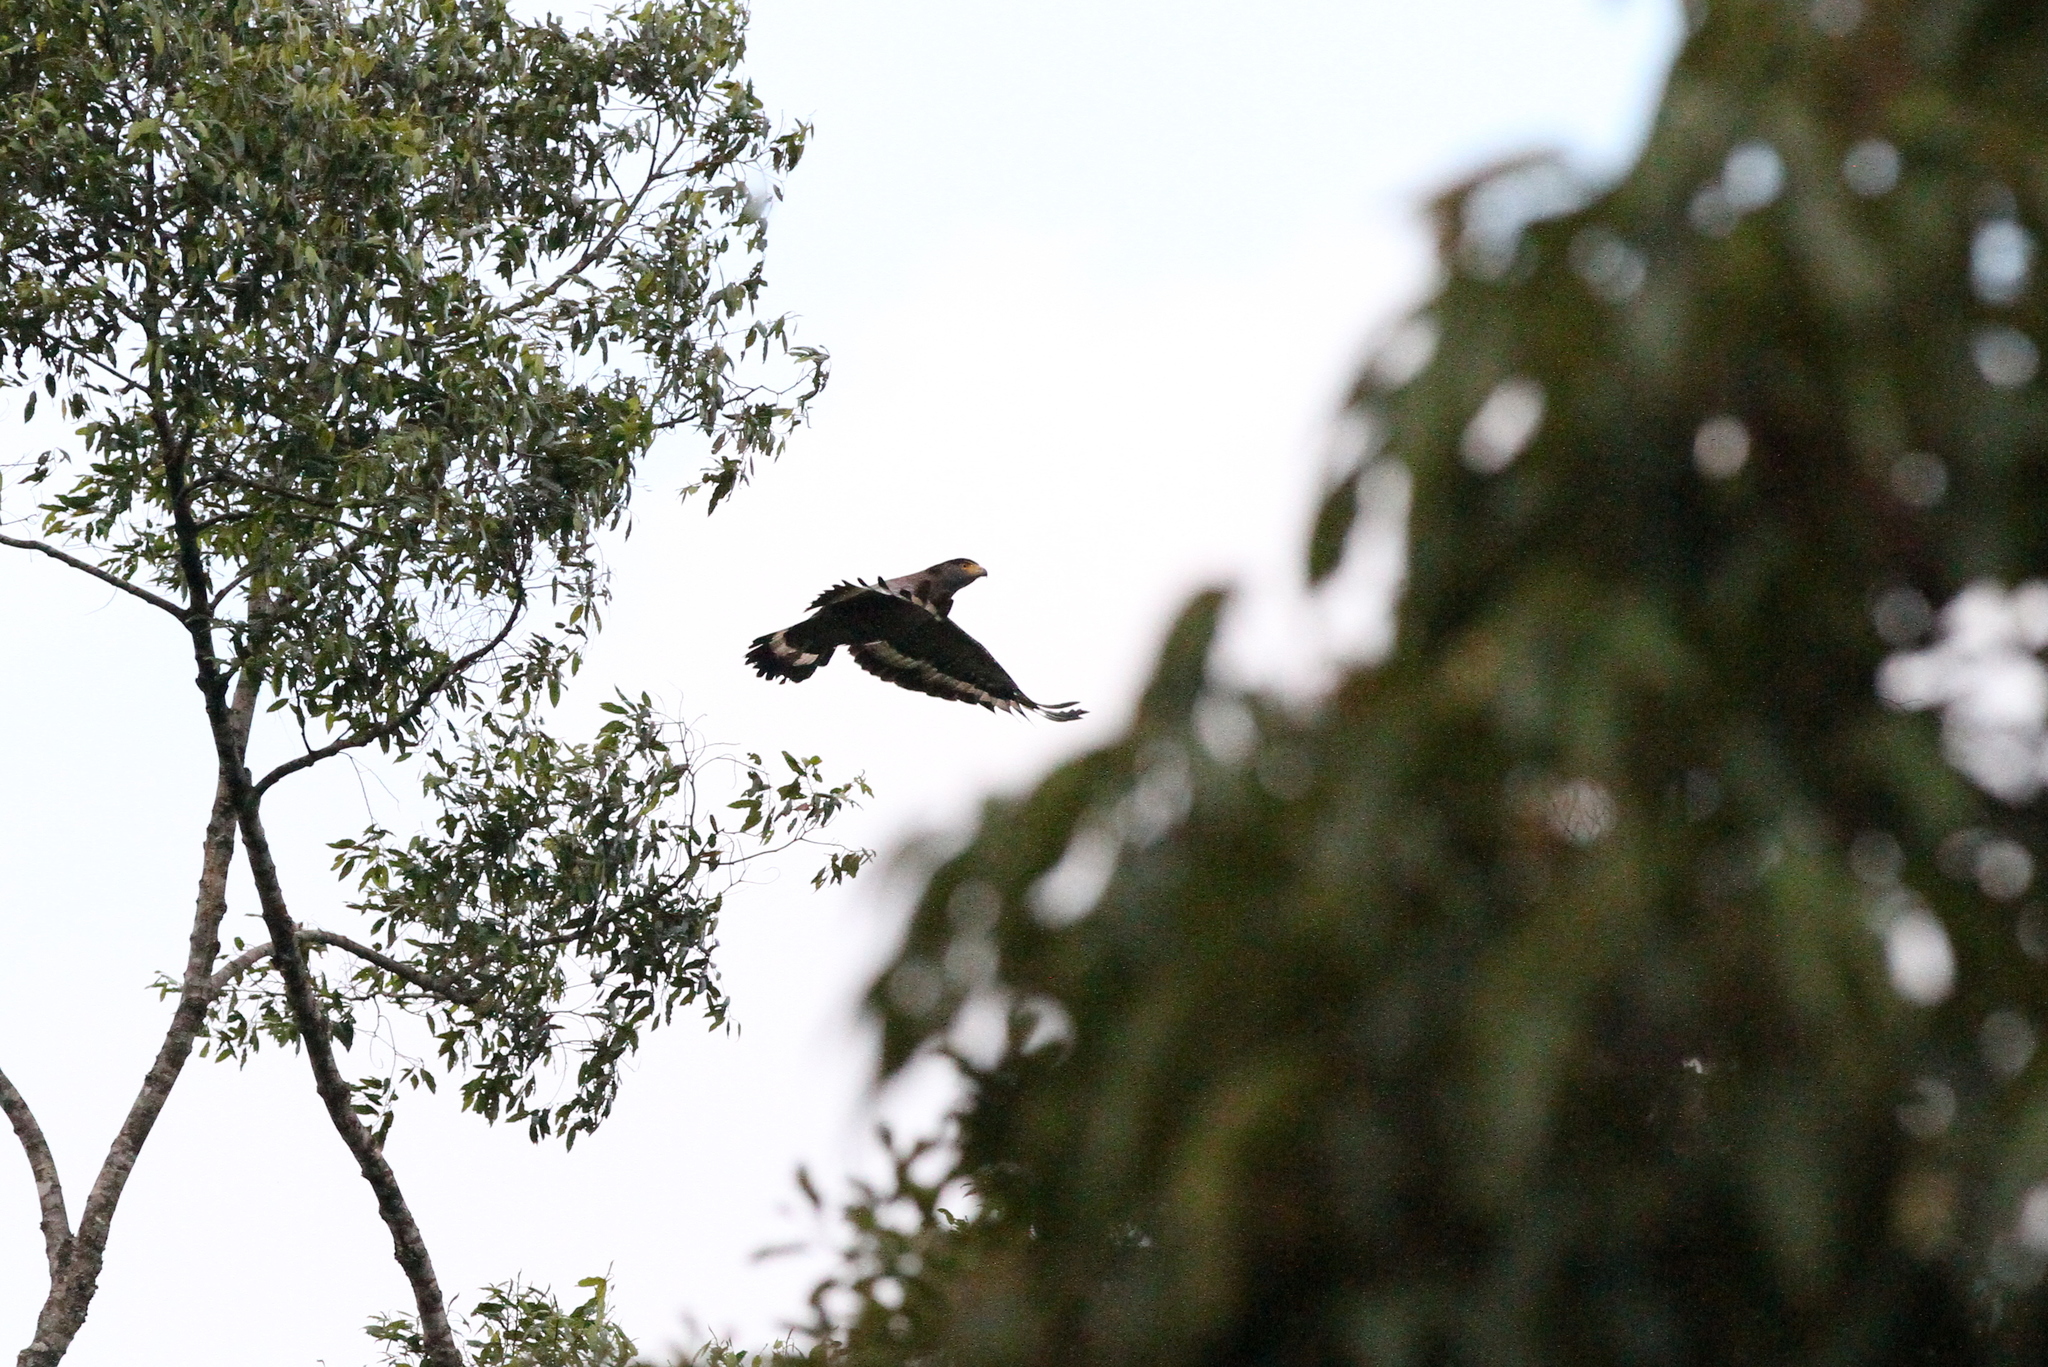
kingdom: Animalia
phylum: Chordata
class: Aves
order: Accipitriformes
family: Accipitridae
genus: Spilornis
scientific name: Spilornis cheela
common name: Crested serpent eagle
